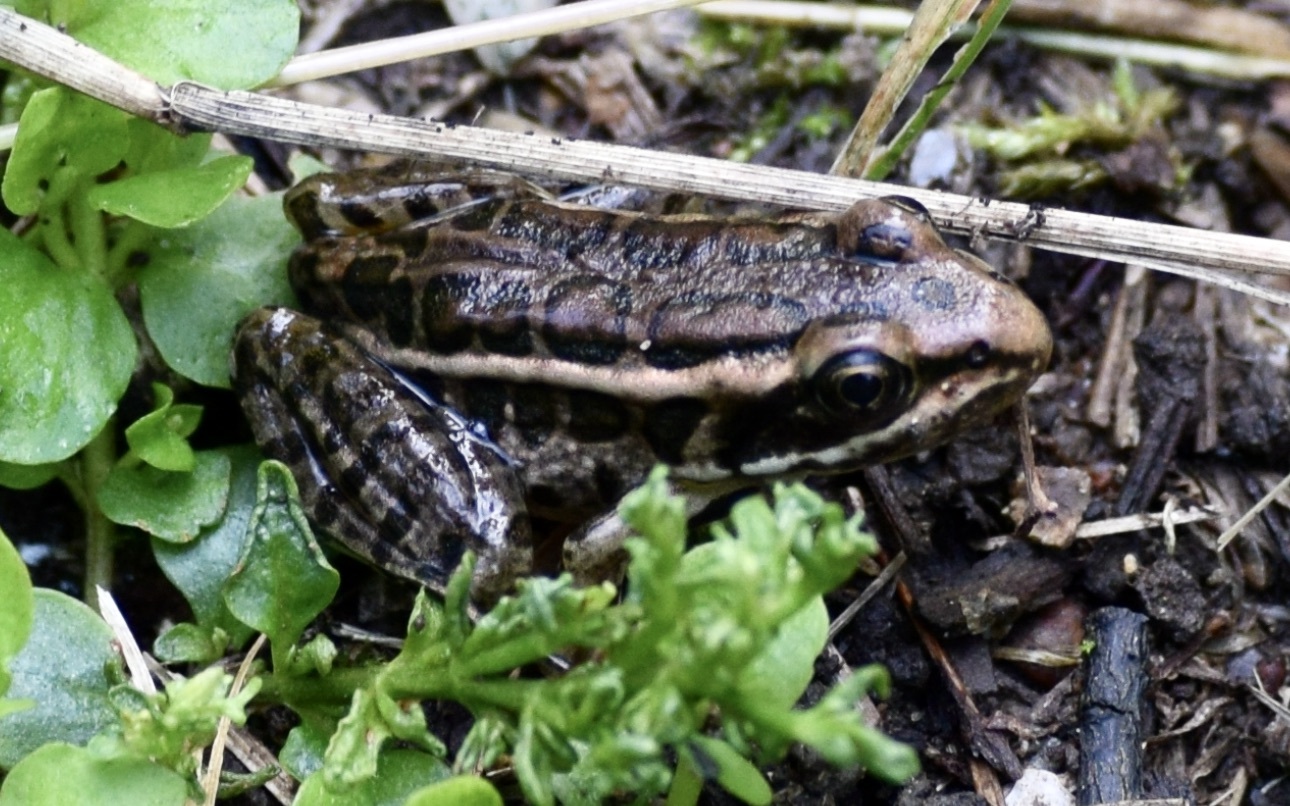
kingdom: Animalia
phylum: Chordata
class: Amphibia
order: Anura
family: Ranidae
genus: Lithobates
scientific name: Lithobates palustris
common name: Pickerel frog
